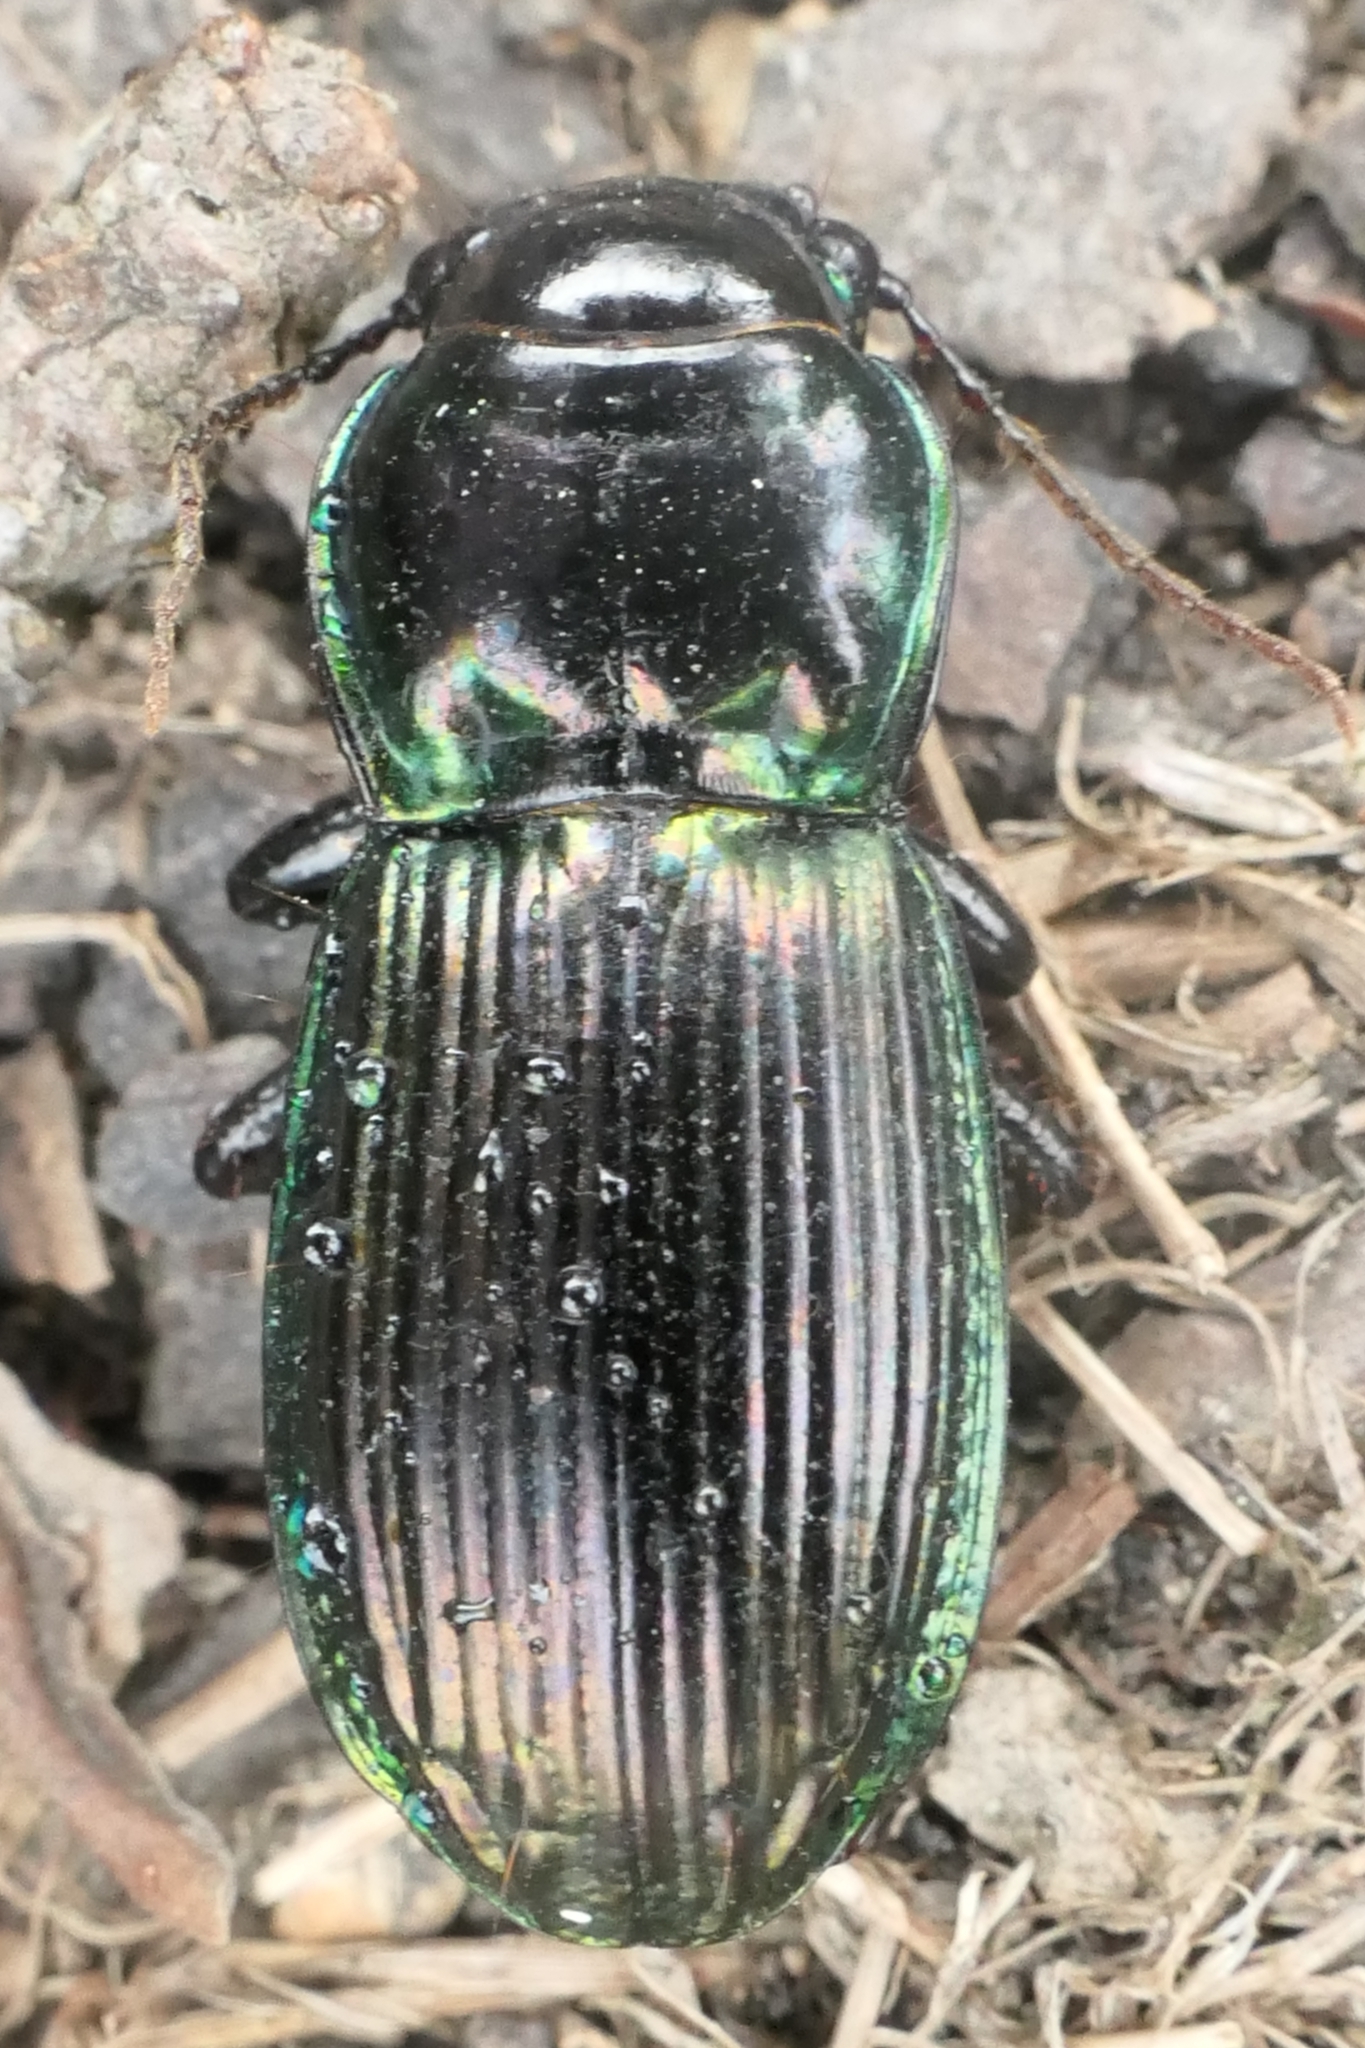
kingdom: Animalia
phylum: Arthropoda
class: Insecta
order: Coleoptera
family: Carabidae
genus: Megadromus
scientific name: Megadromus antarcticus
